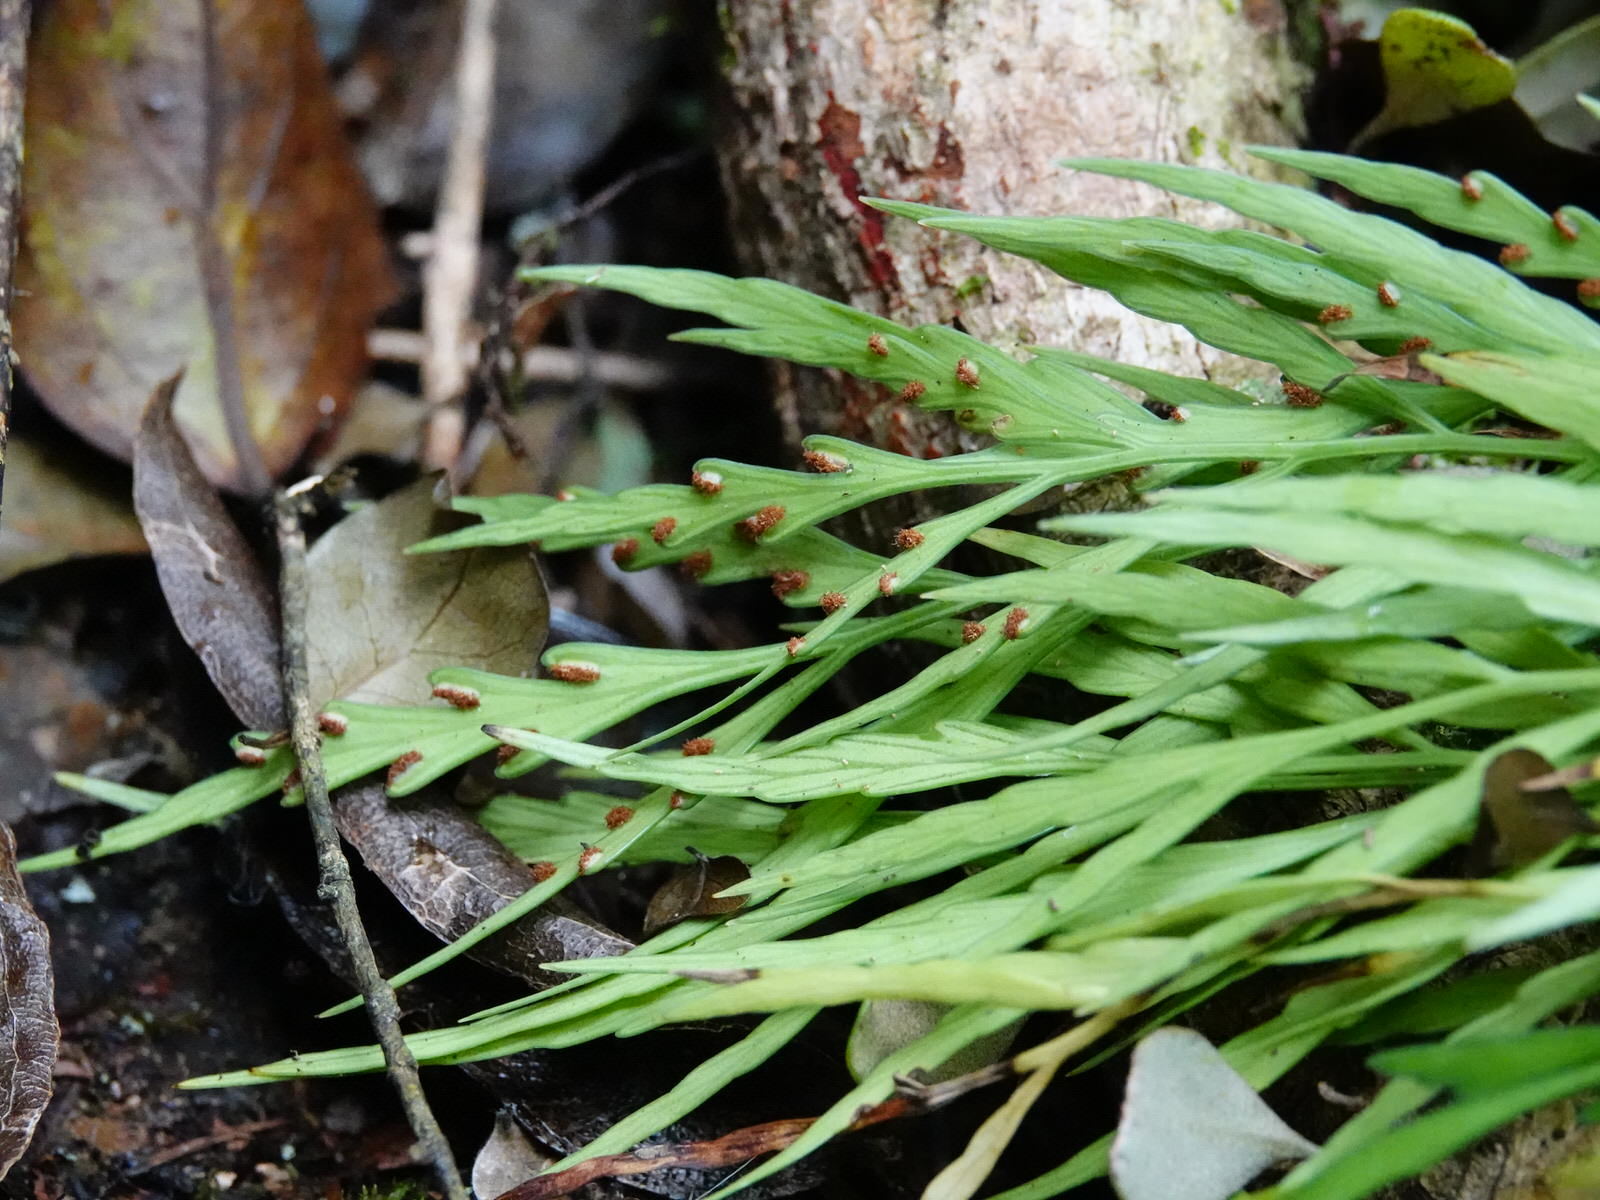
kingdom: Plantae
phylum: Tracheophyta
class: Polypodiopsida
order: Polypodiales
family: Aspleniaceae
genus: Asplenium
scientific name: Asplenium flaccidum
